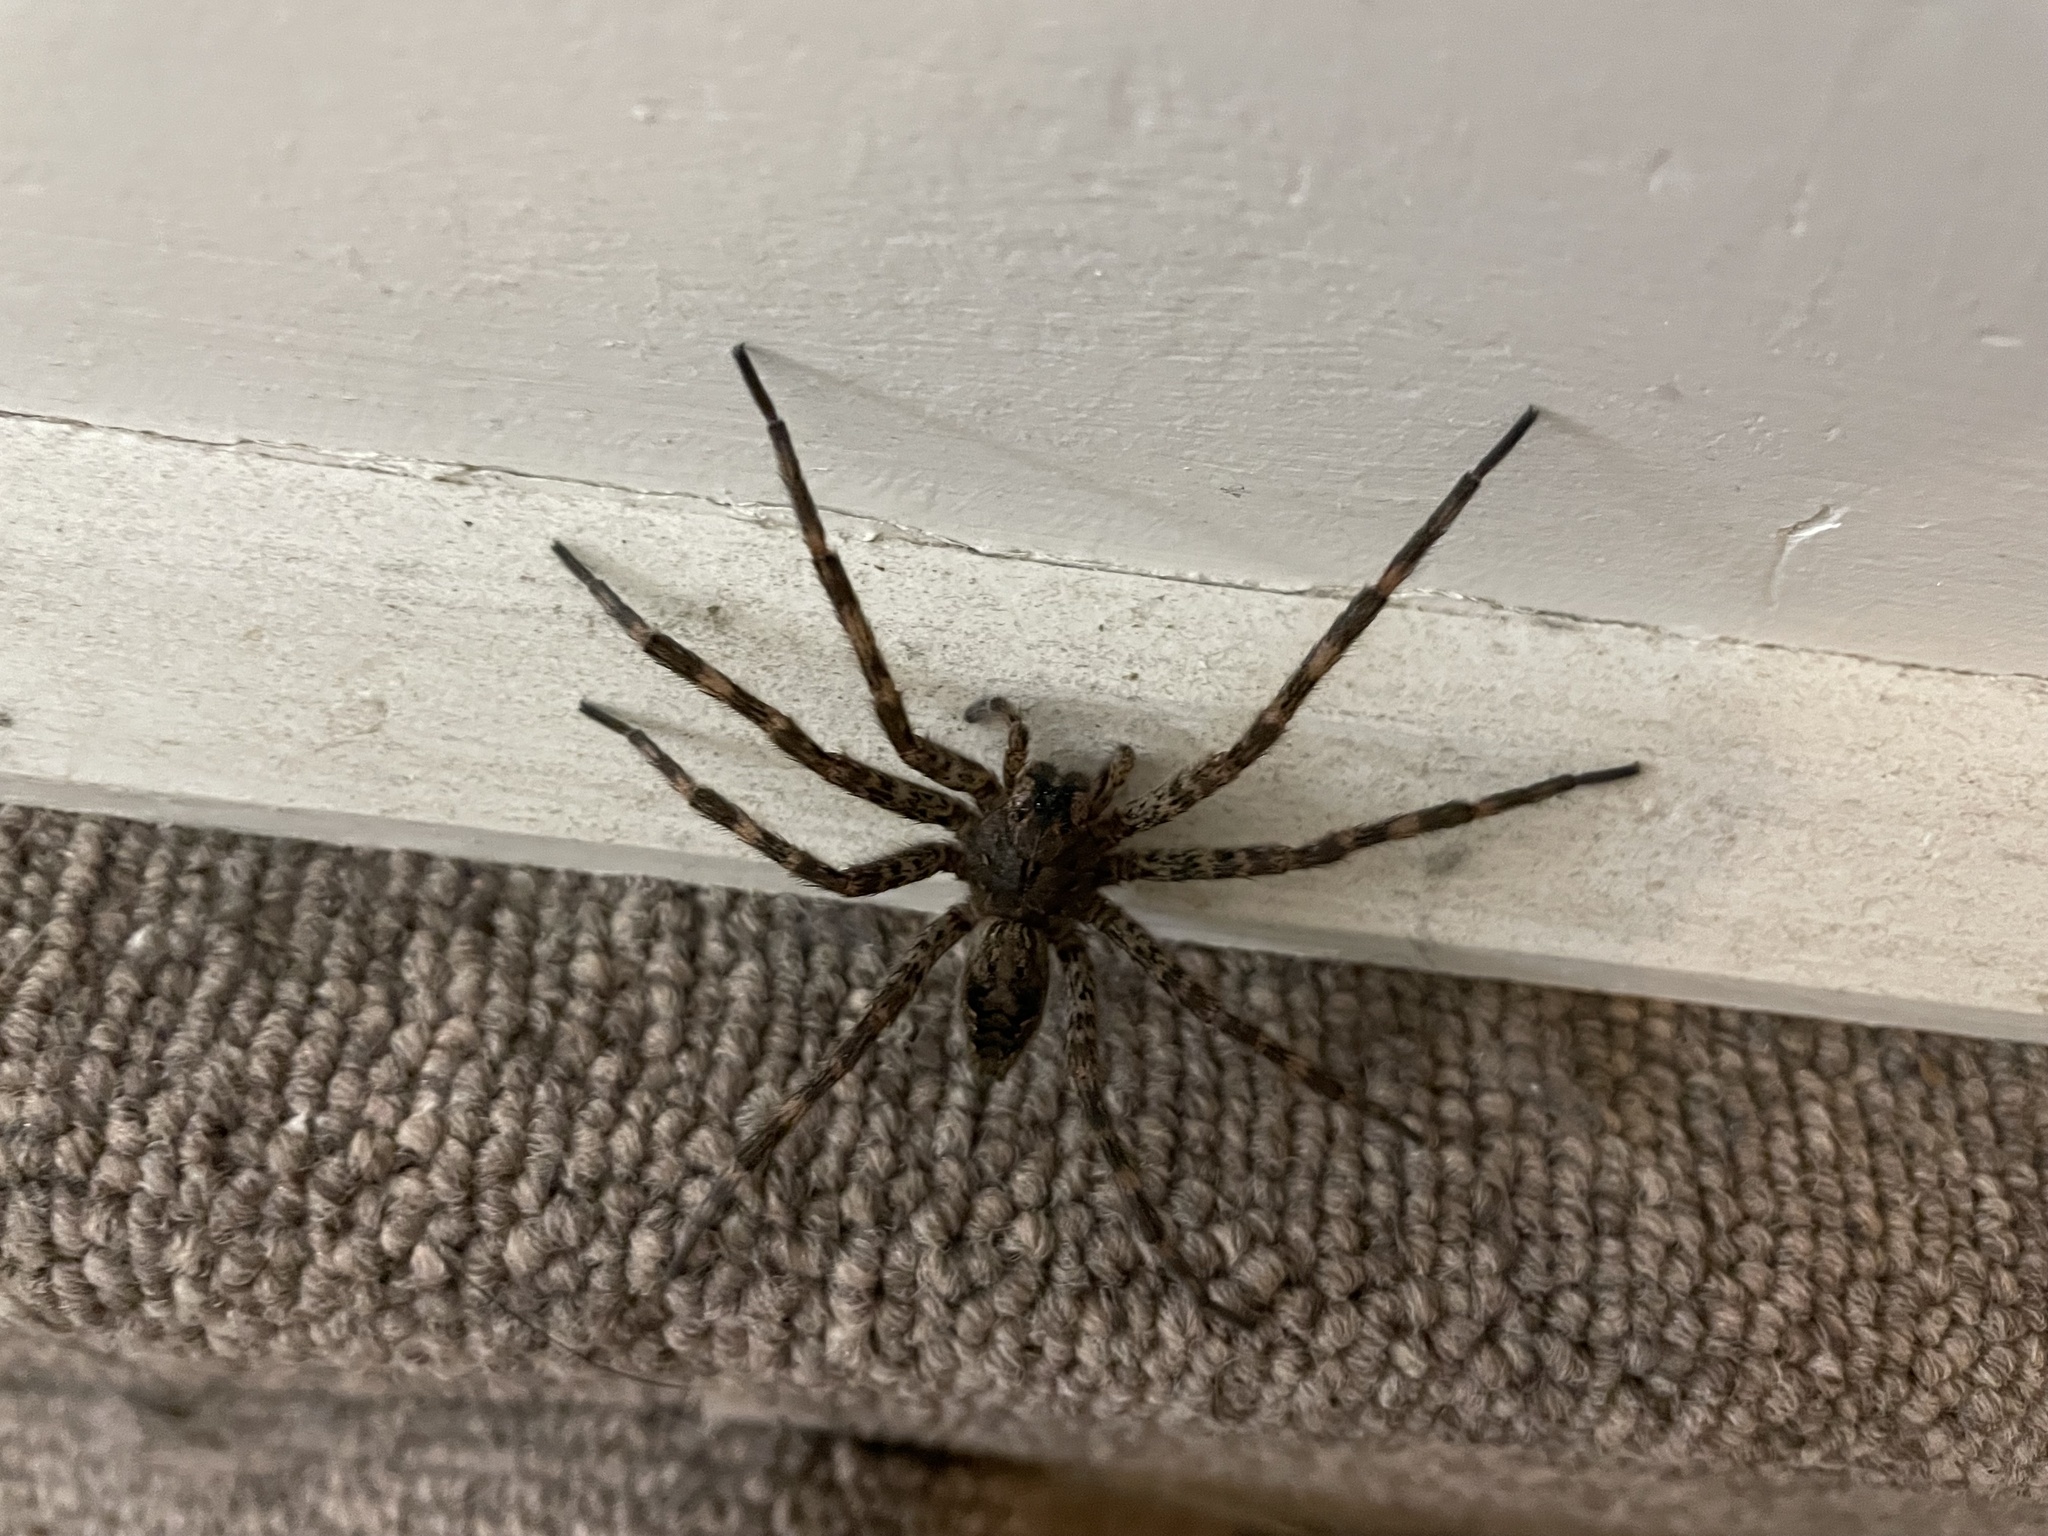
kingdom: Animalia
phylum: Arthropoda
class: Arachnida
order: Araneae
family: Pisauridae
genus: Dolomedes
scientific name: Dolomedes tenebrosus
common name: Dark fishing spider
